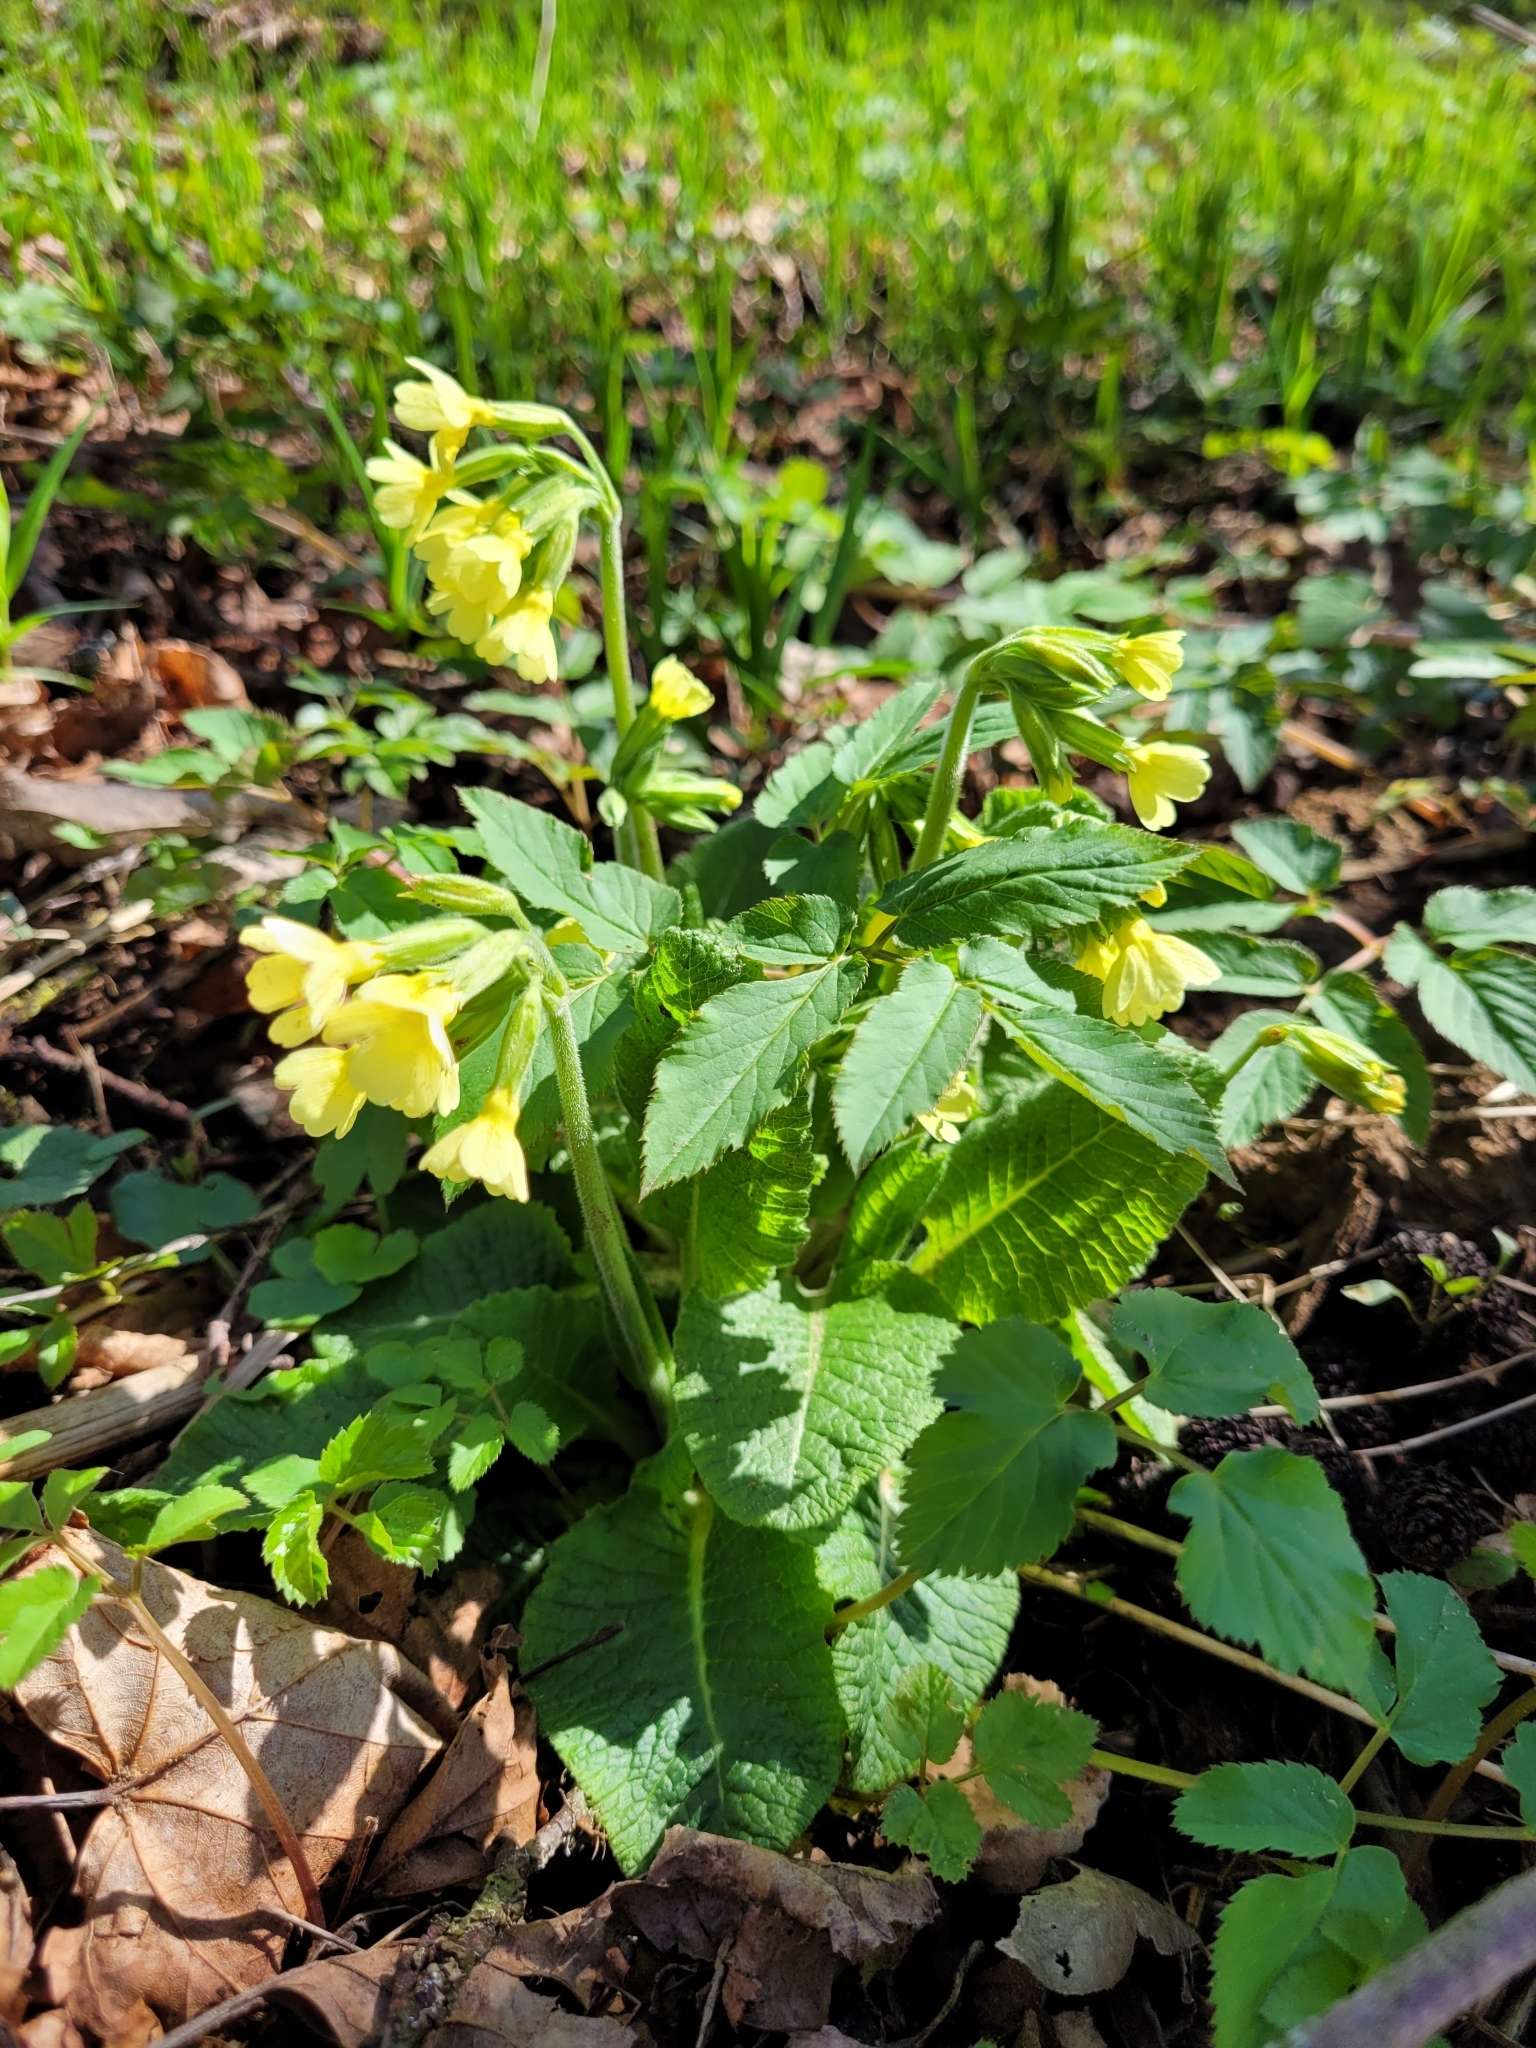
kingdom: Plantae
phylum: Tracheophyta
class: Magnoliopsida
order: Ericales
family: Primulaceae
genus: Primula
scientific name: Primula elatior
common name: Oxlip
